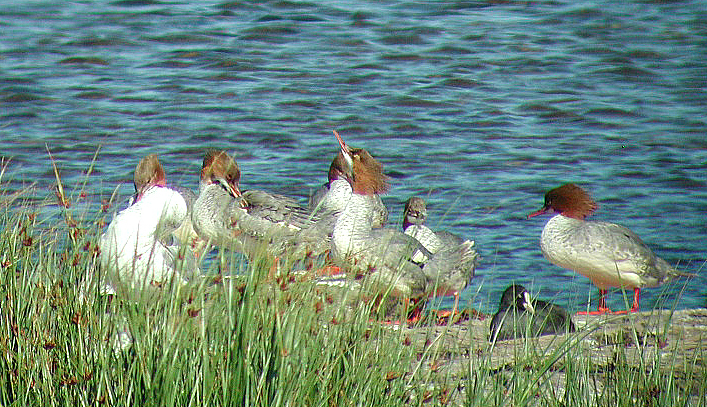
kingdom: Animalia
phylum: Chordata
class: Aves
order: Anseriformes
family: Anatidae
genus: Mergus
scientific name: Mergus merganser
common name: Common merganser
